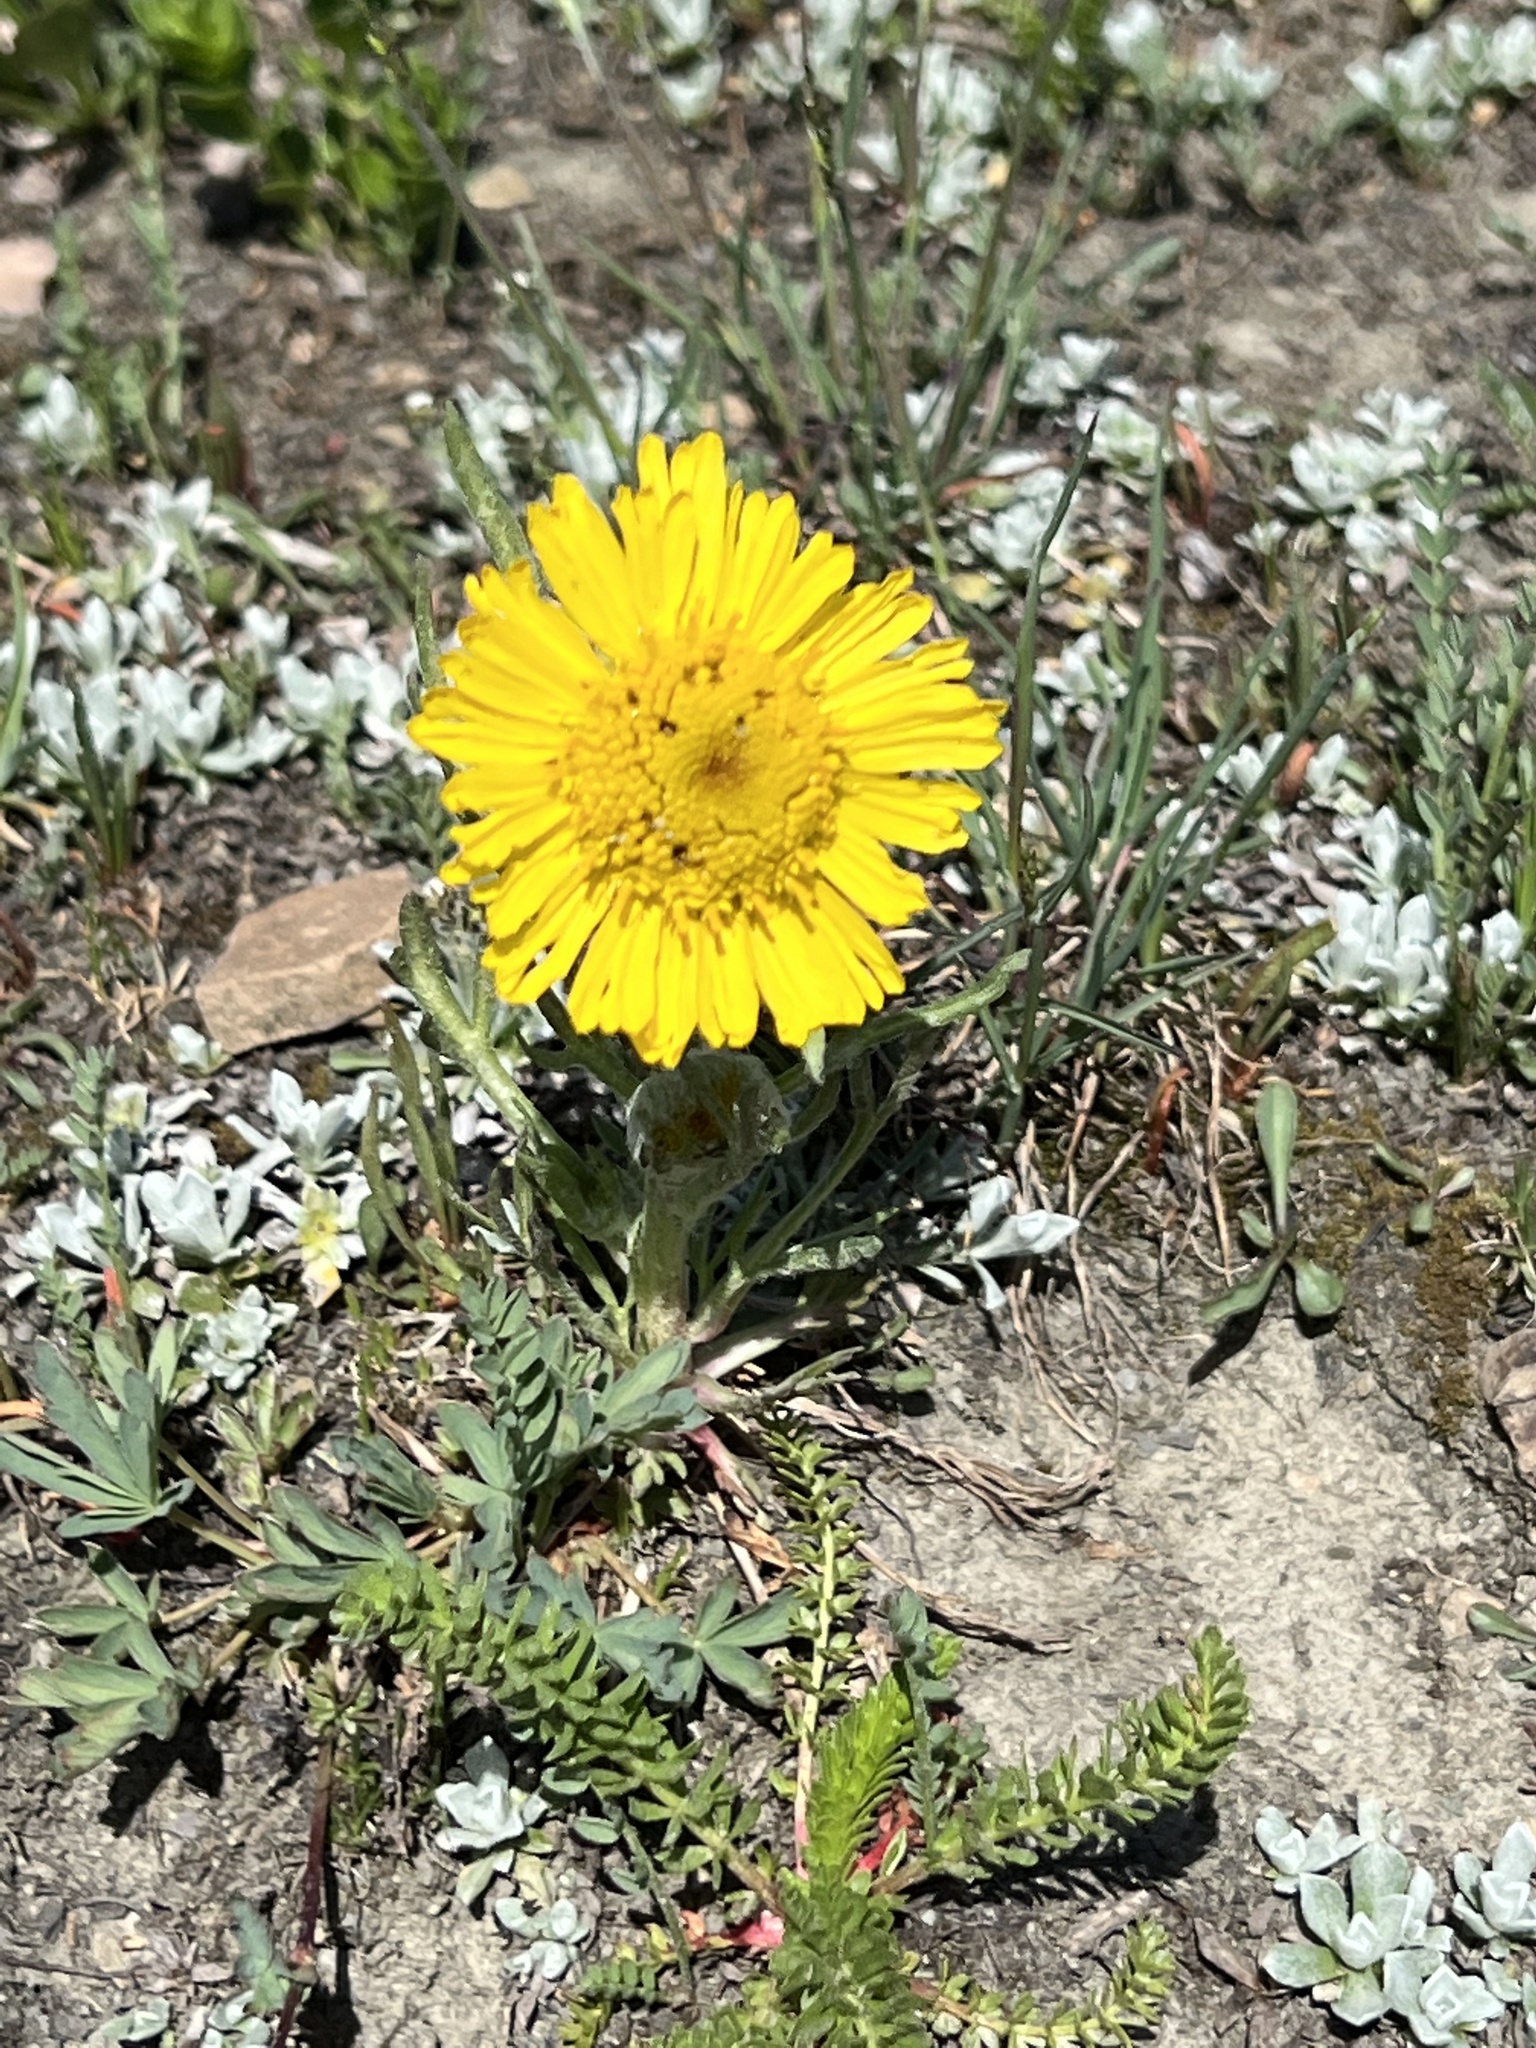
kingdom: Plantae
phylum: Tracheophyta
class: Magnoliopsida
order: Asterales
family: Asteraceae
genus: Hymenoxys
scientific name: Hymenoxys grandiflora
